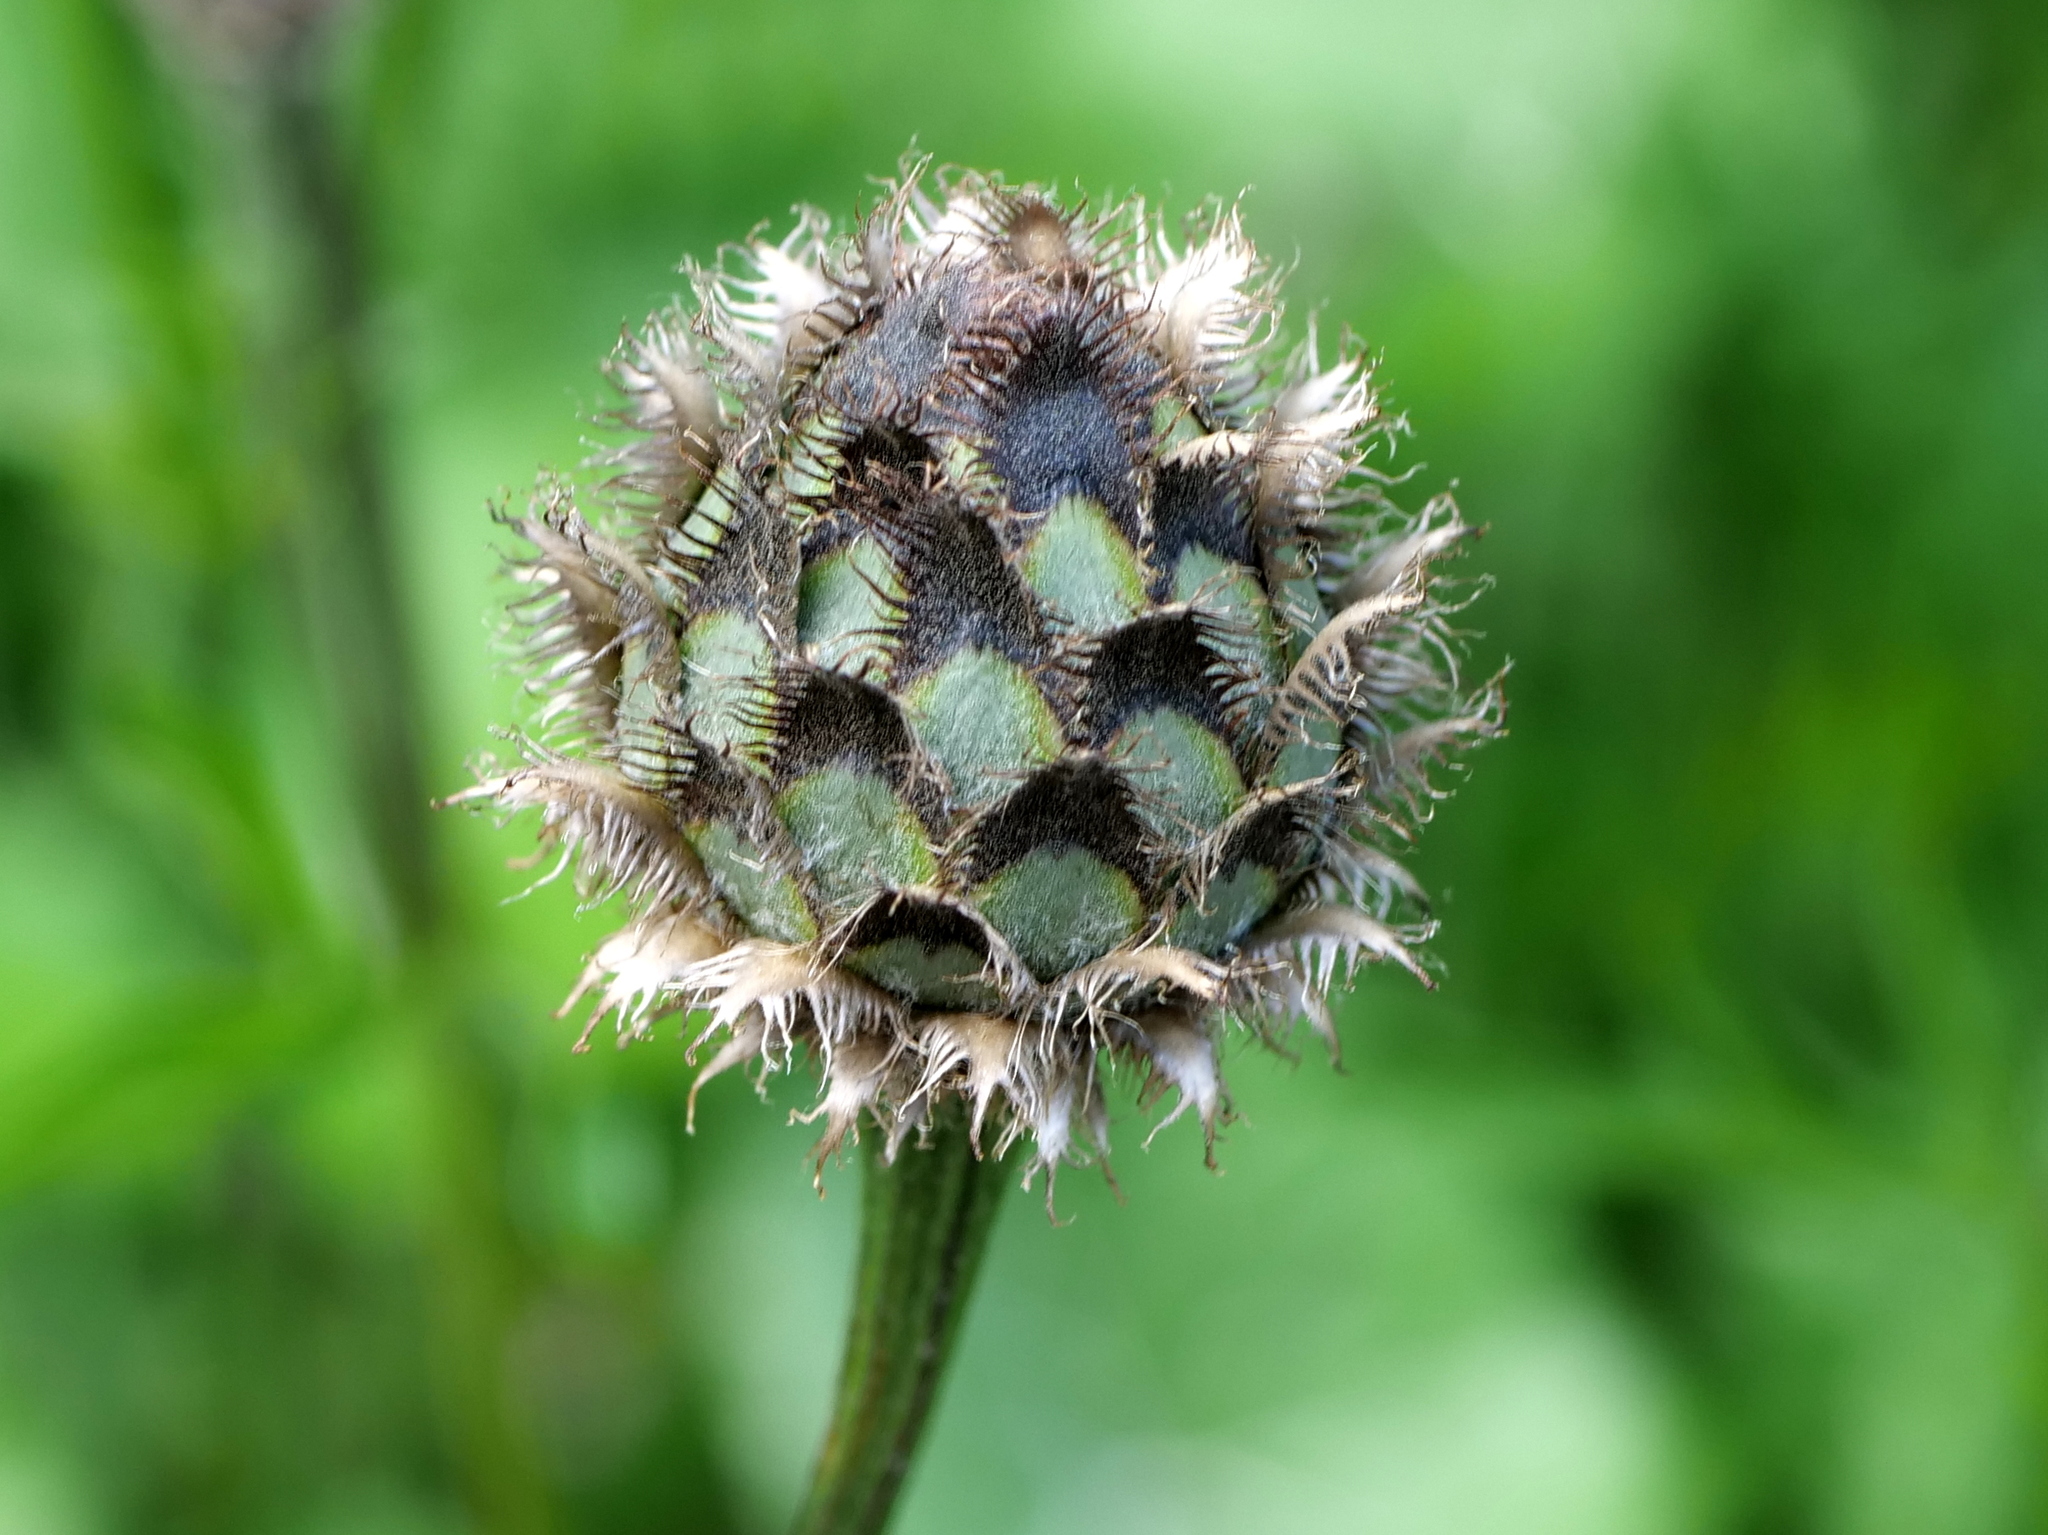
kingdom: Plantae
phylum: Tracheophyta
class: Magnoliopsida
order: Asterales
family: Asteraceae
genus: Centaurea
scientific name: Centaurea scabiosa
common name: Greater knapweed
